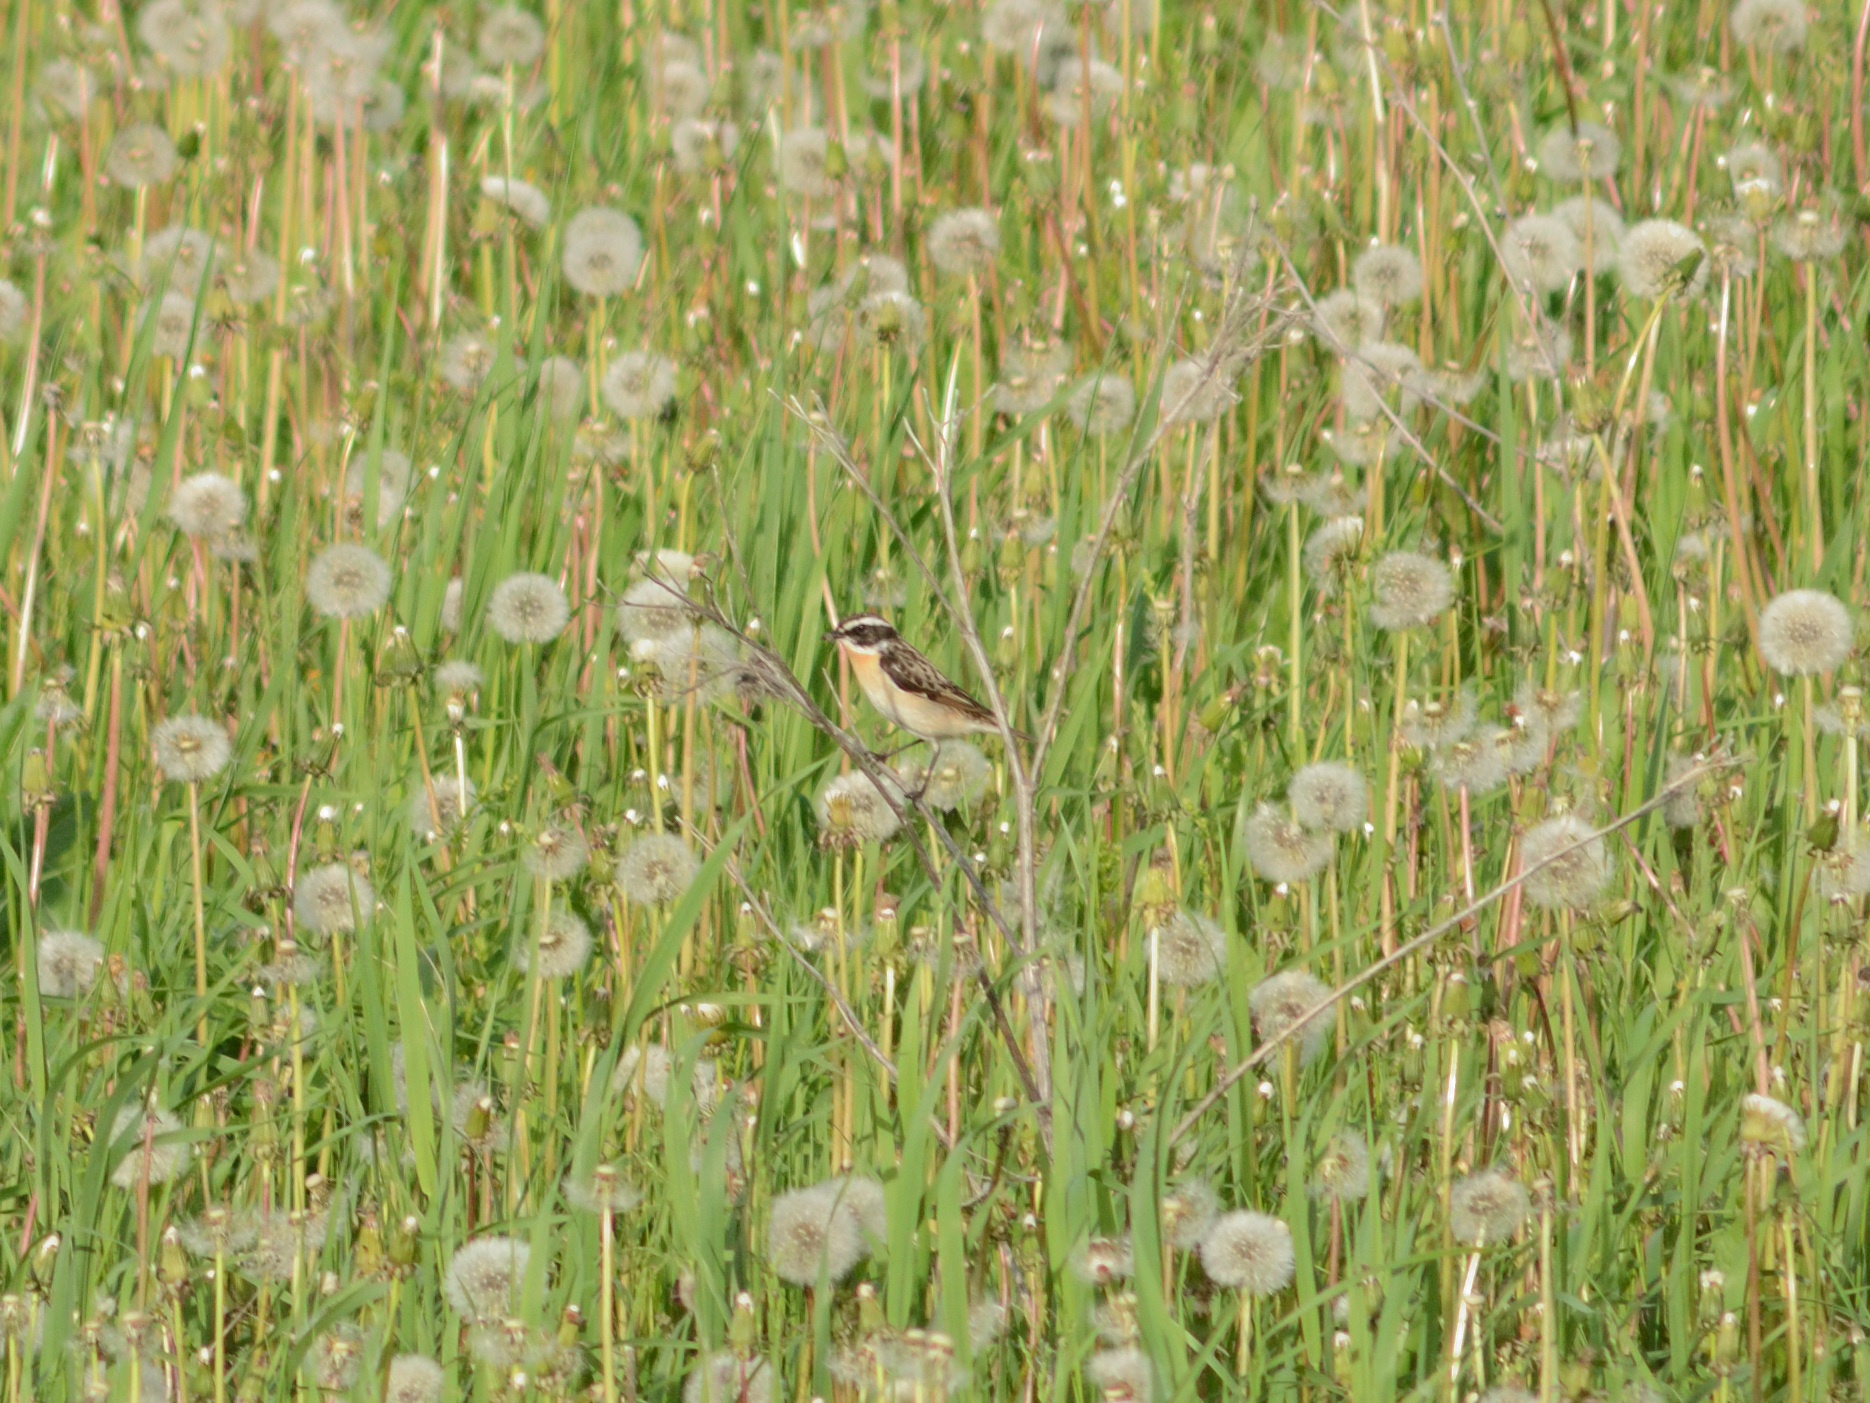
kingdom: Animalia
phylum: Chordata
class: Aves
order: Passeriformes
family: Muscicapidae
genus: Saxicola
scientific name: Saxicola rubetra
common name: Whinchat
